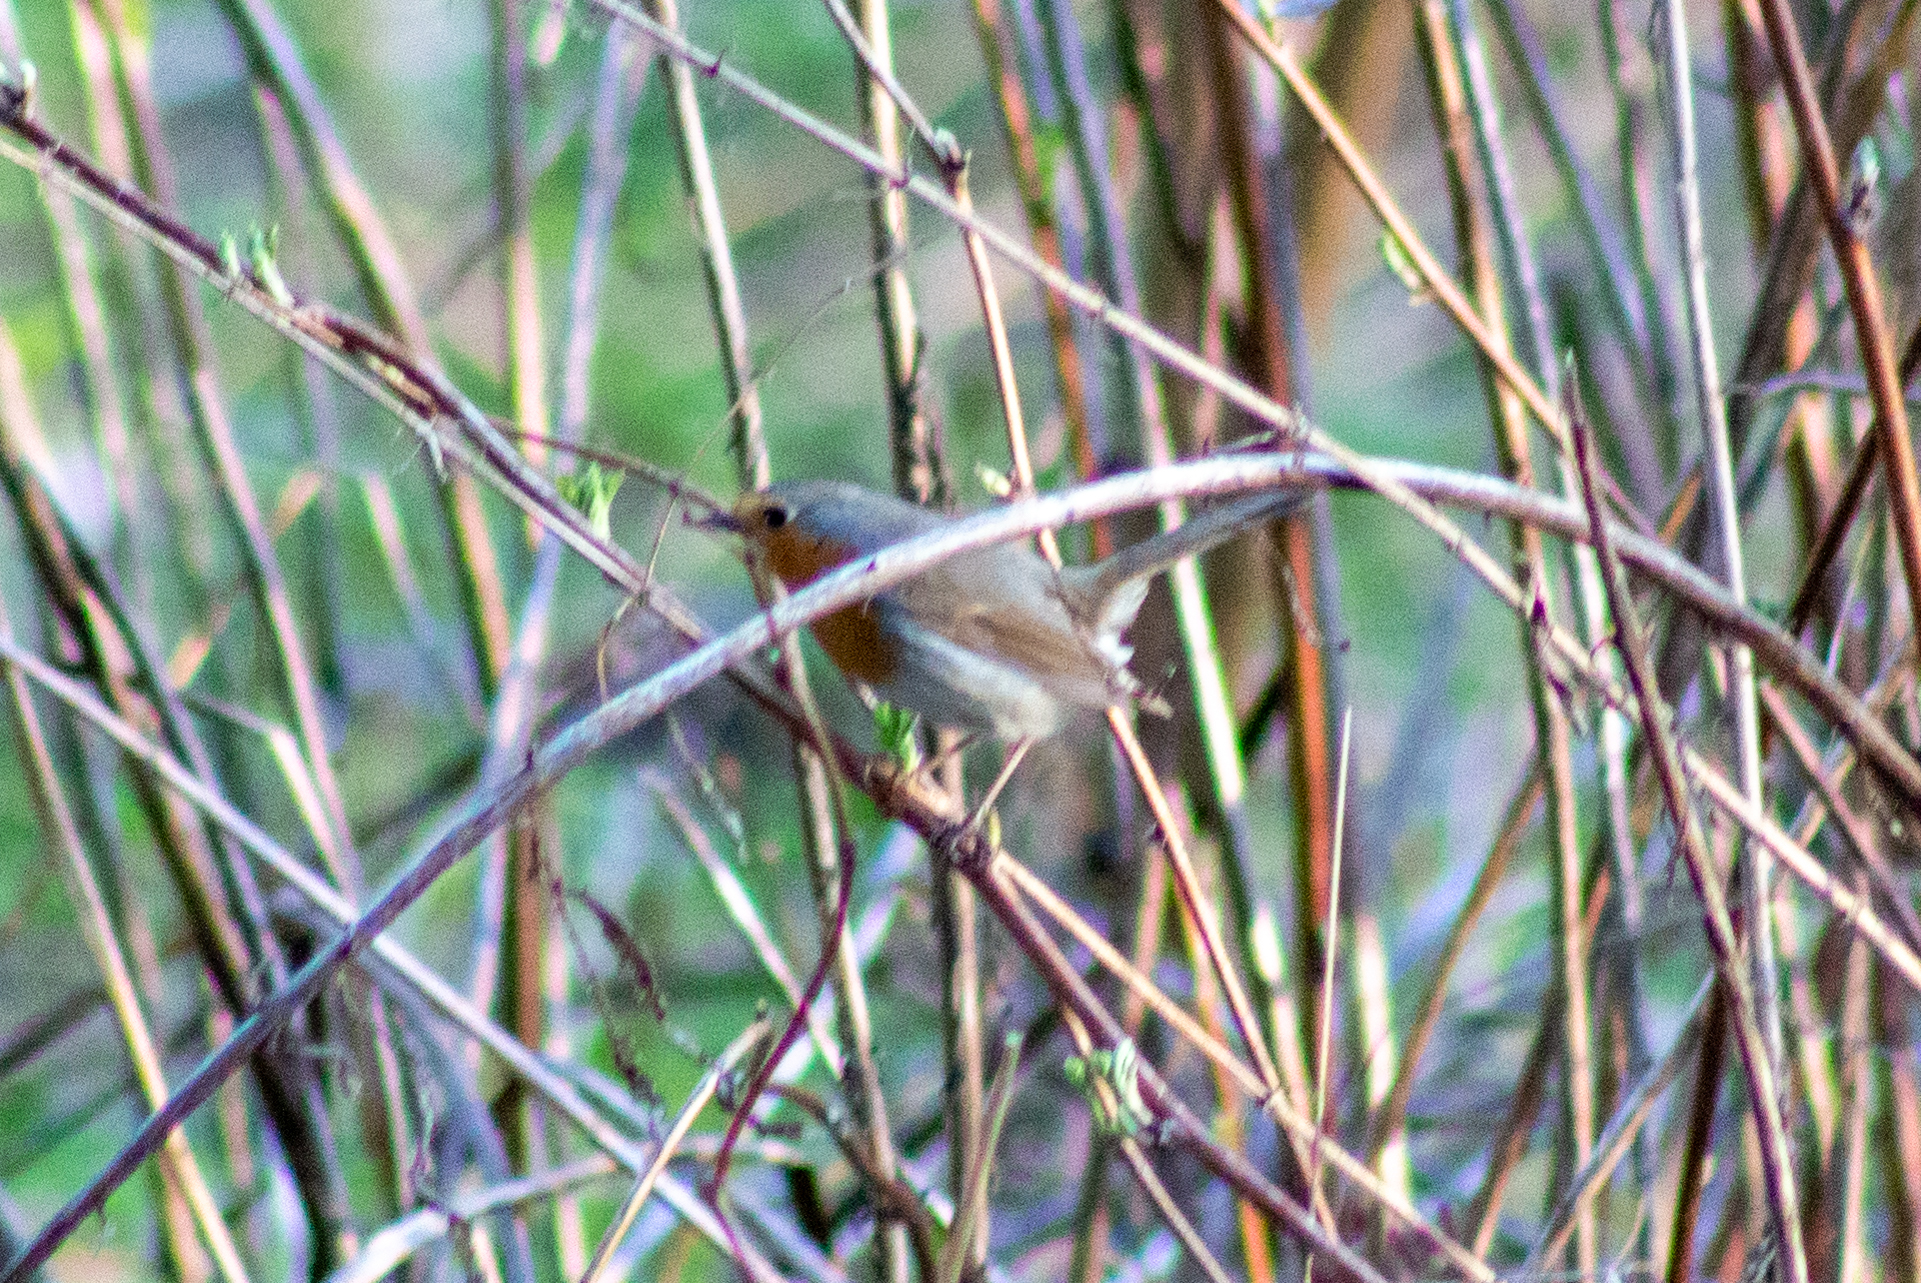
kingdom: Animalia
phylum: Chordata
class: Aves
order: Passeriformes
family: Muscicapidae
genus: Erithacus
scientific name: Erithacus rubecula
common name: European robin
